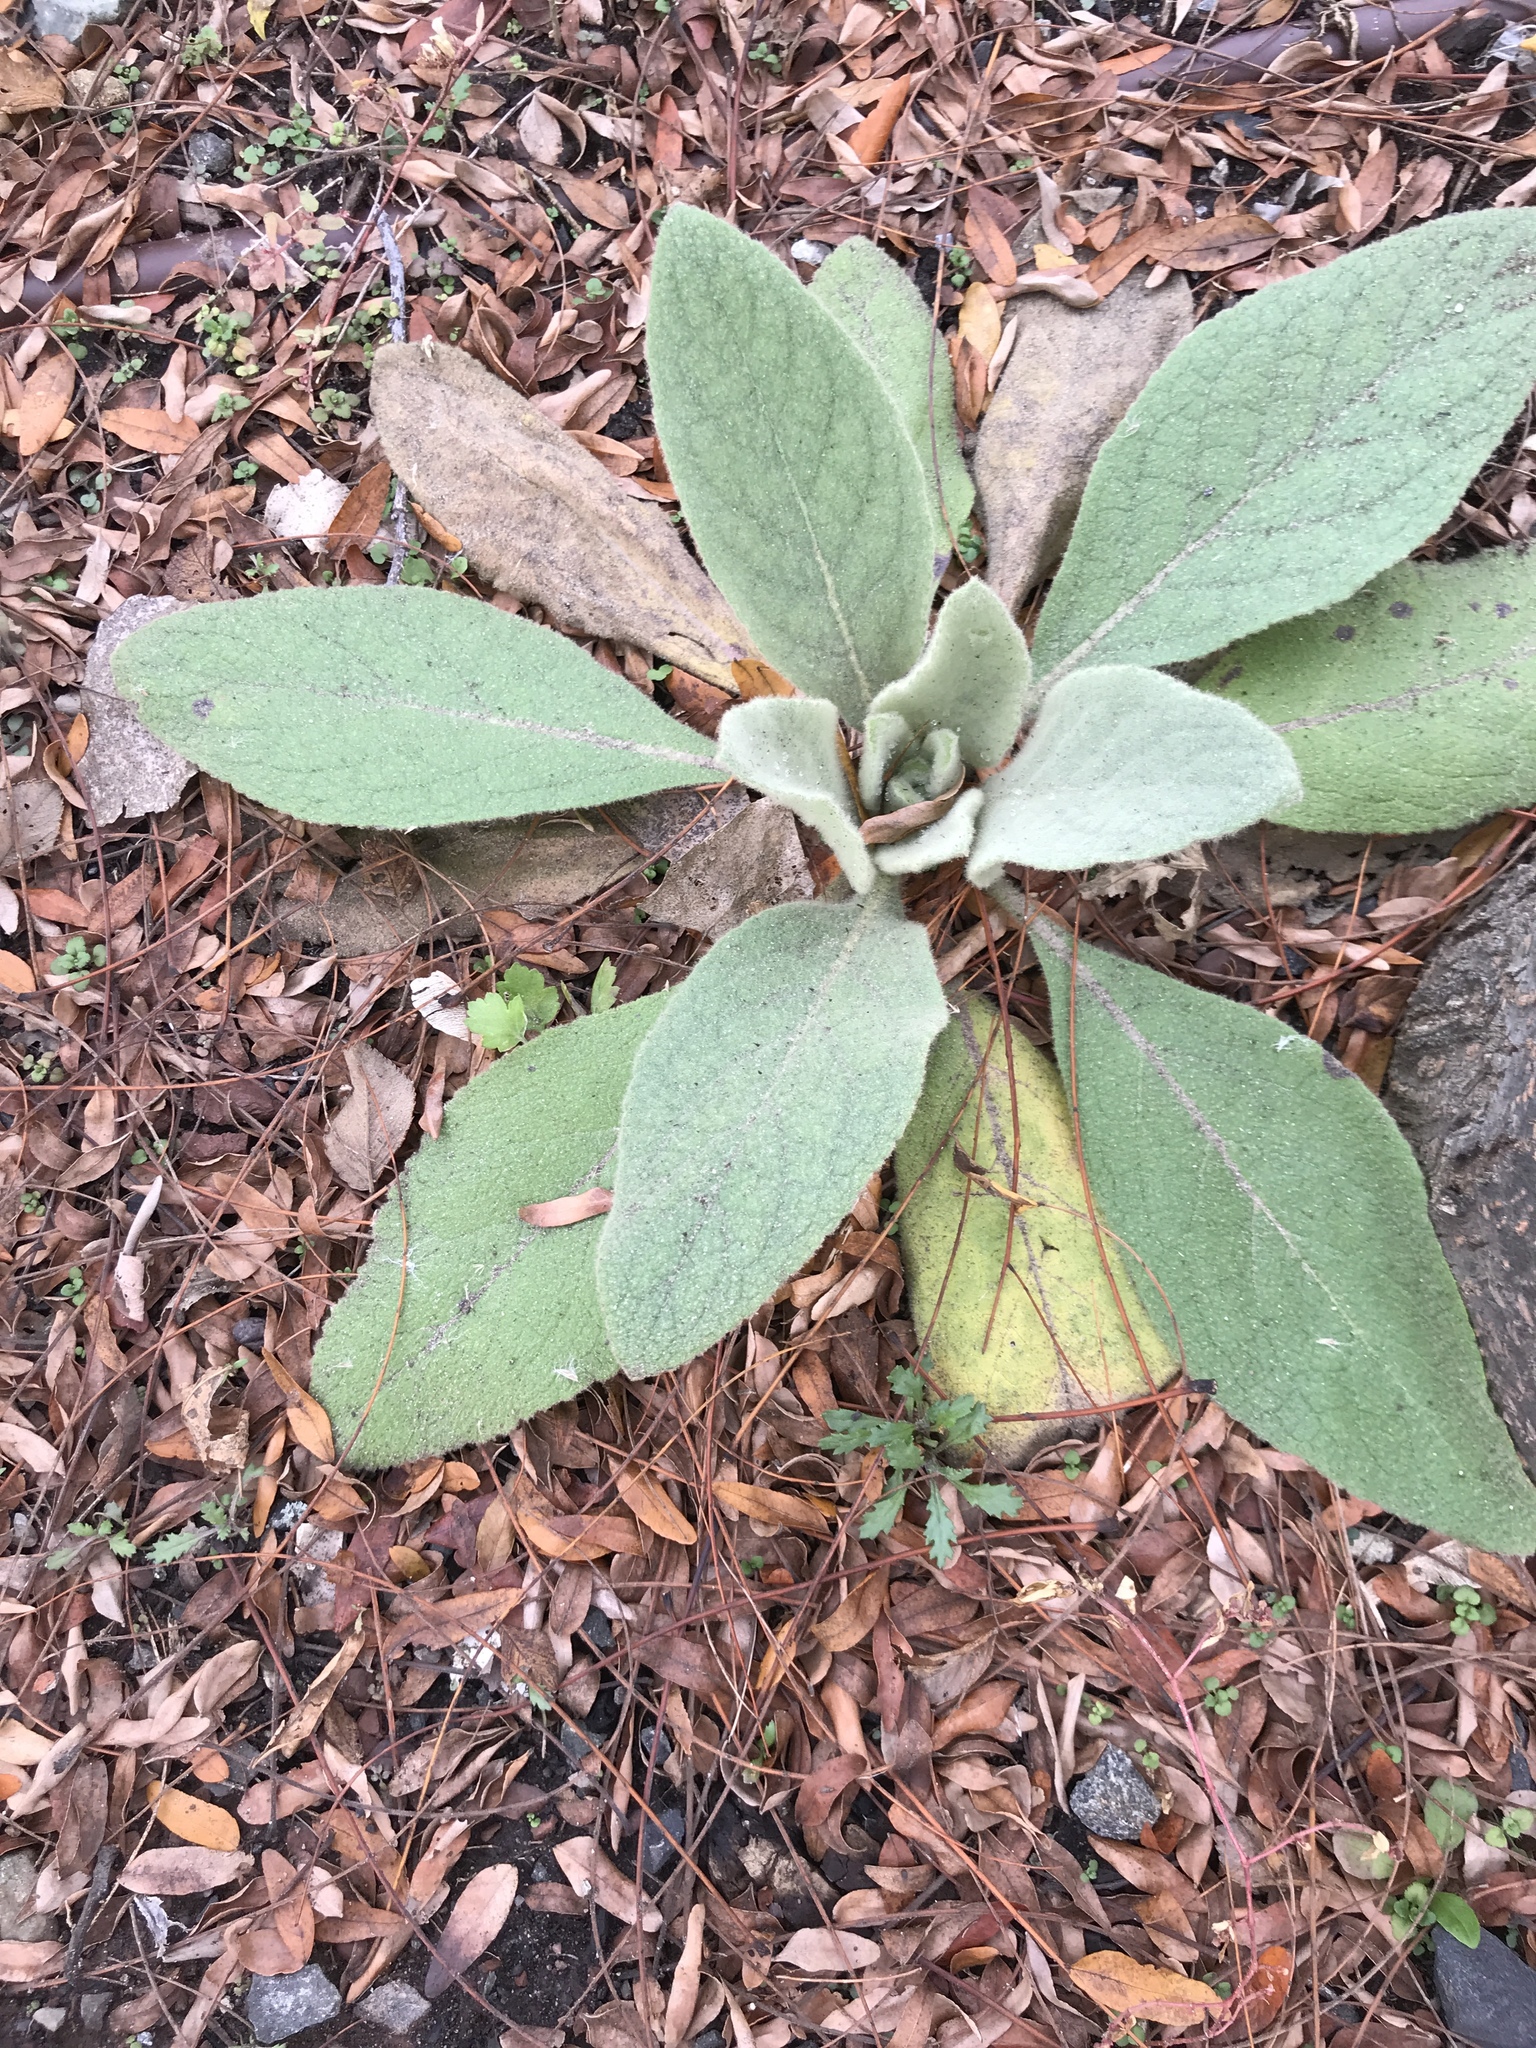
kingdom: Plantae
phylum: Tracheophyta
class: Magnoliopsida
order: Lamiales
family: Scrophulariaceae
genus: Verbascum
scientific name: Verbascum thapsus
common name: Common mullein
